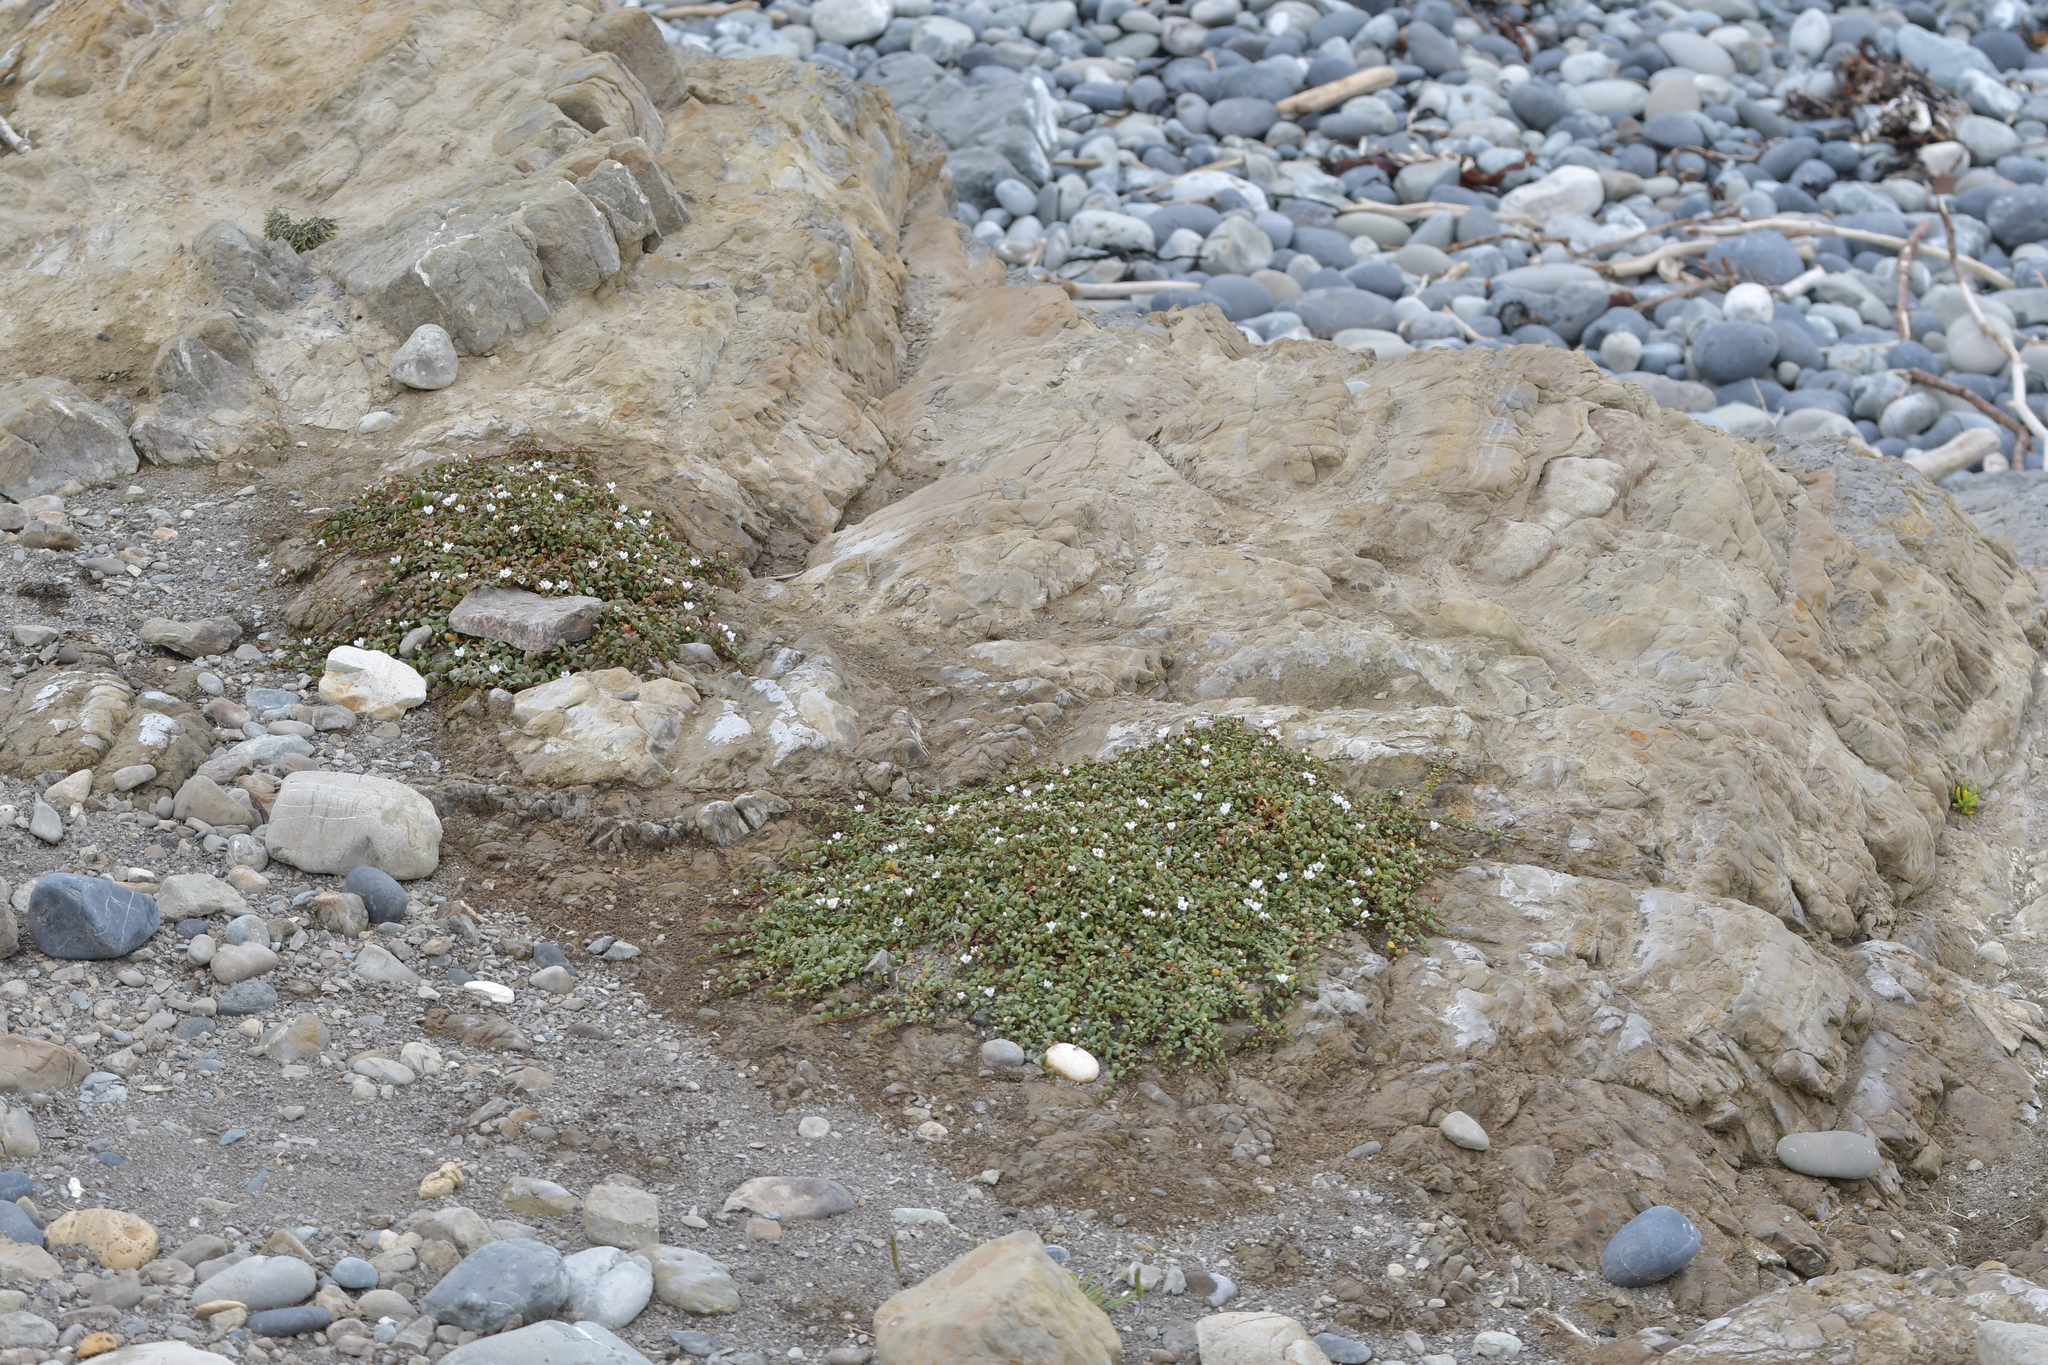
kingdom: Plantae
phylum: Tracheophyta
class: Magnoliopsida
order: Ericales
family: Primulaceae
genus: Samolus
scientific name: Samolus repens
